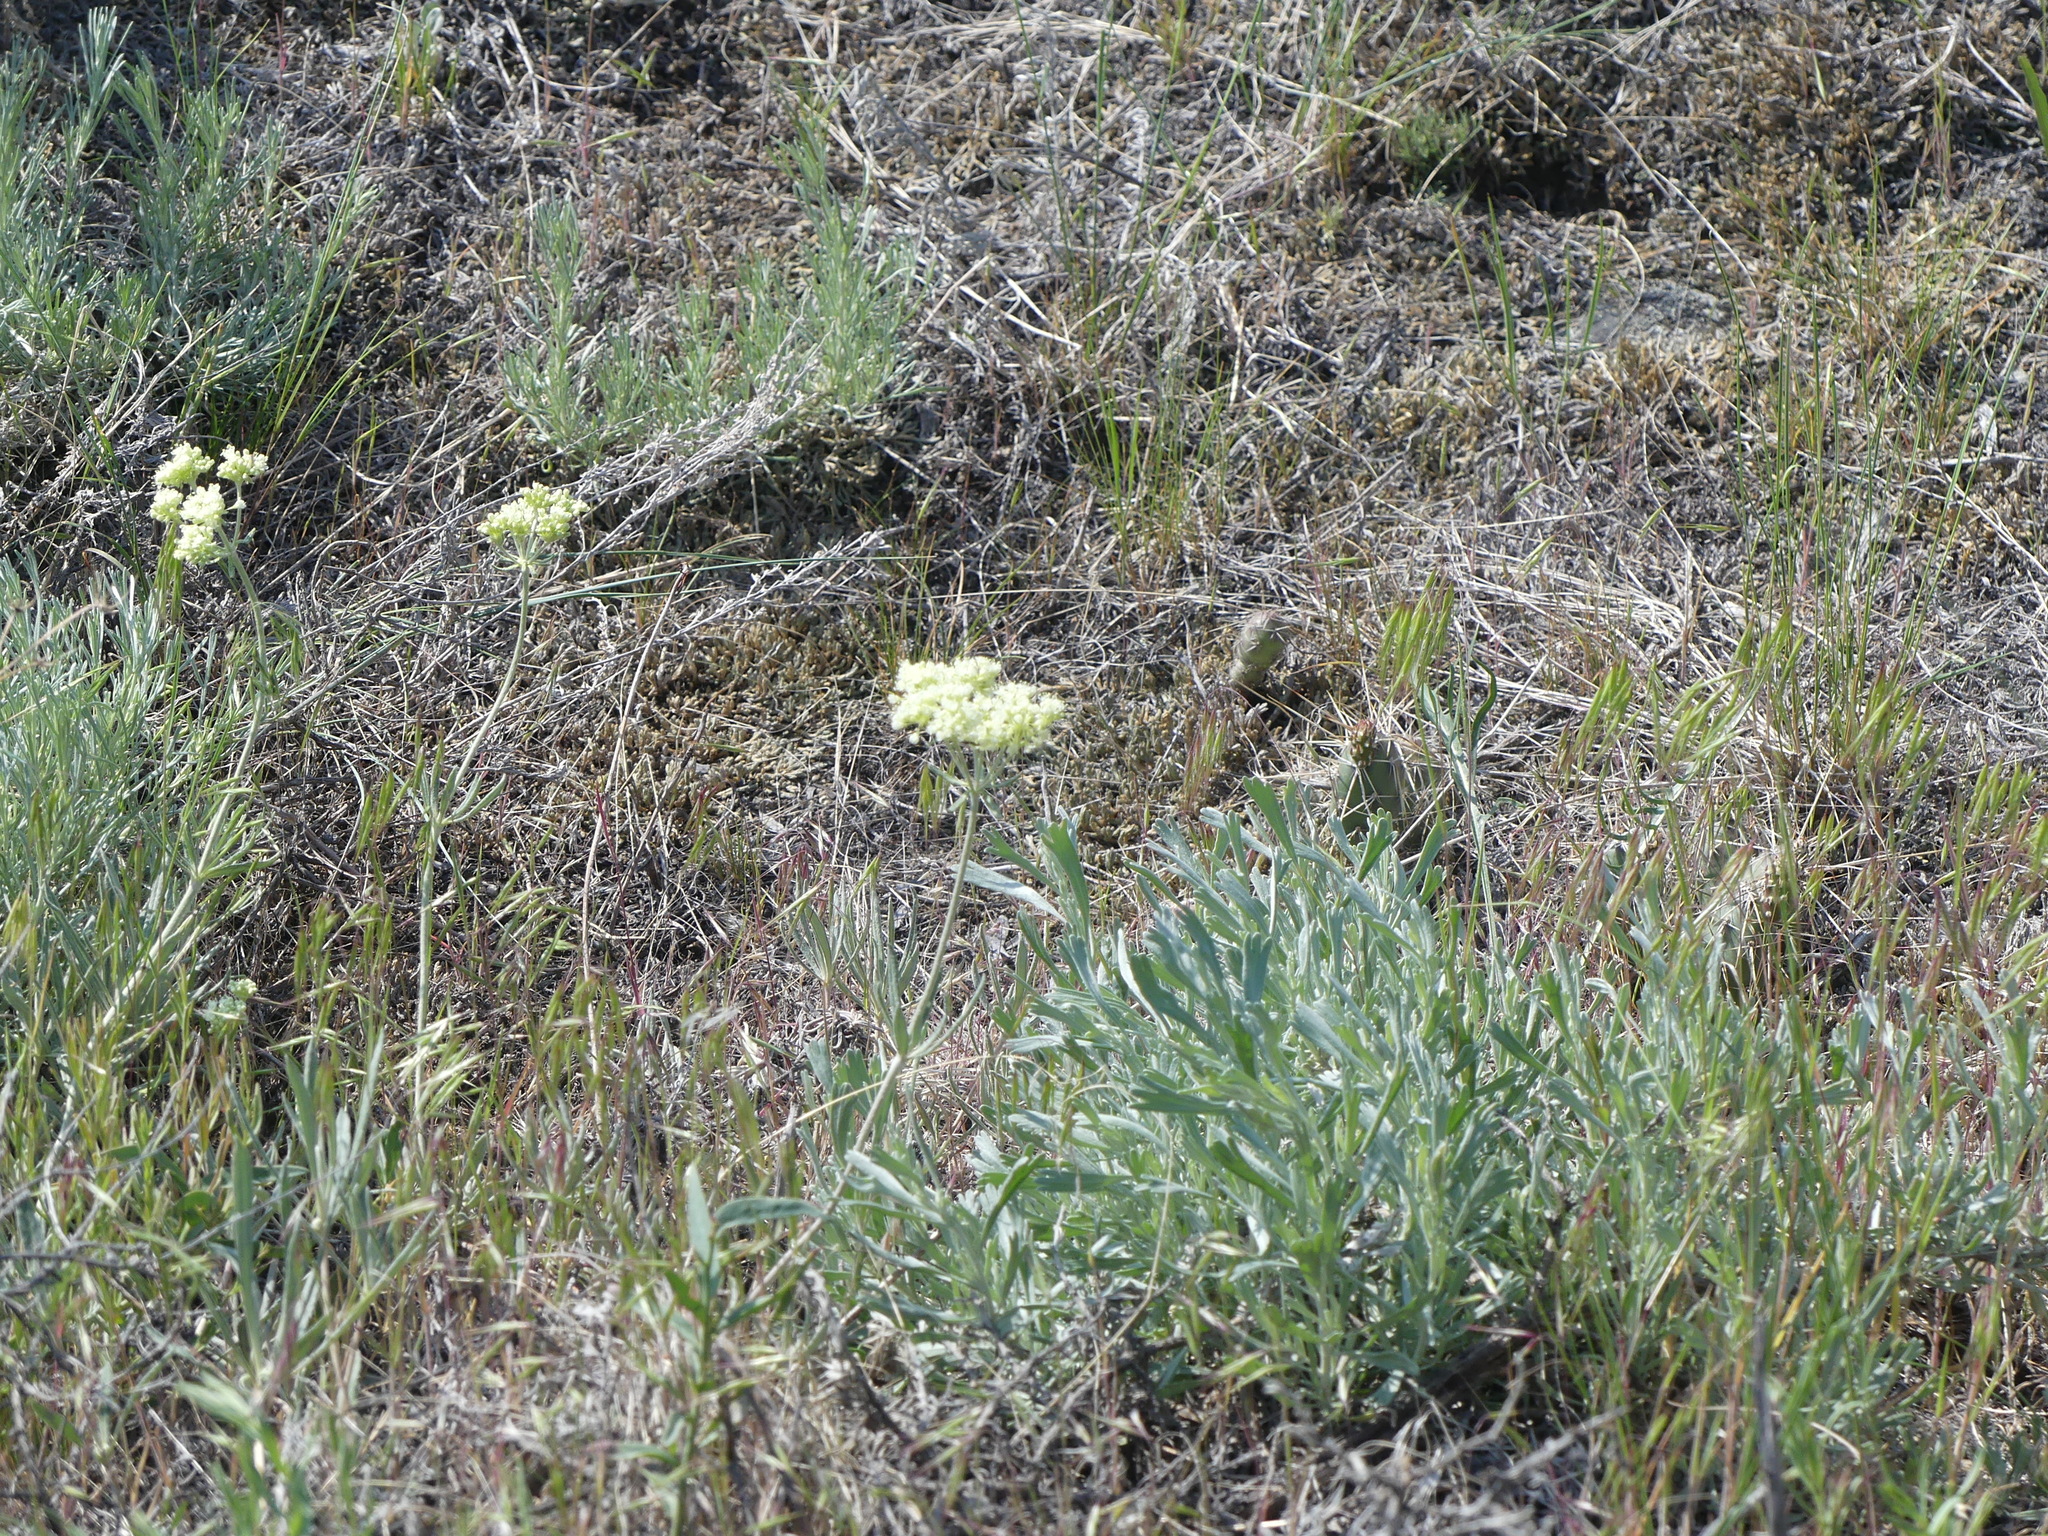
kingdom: Plantae
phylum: Tracheophyta
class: Magnoliopsida
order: Caryophyllales
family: Polygonaceae
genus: Eriogonum
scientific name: Eriogonum heracleoides
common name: Wyeth's buckwheat
